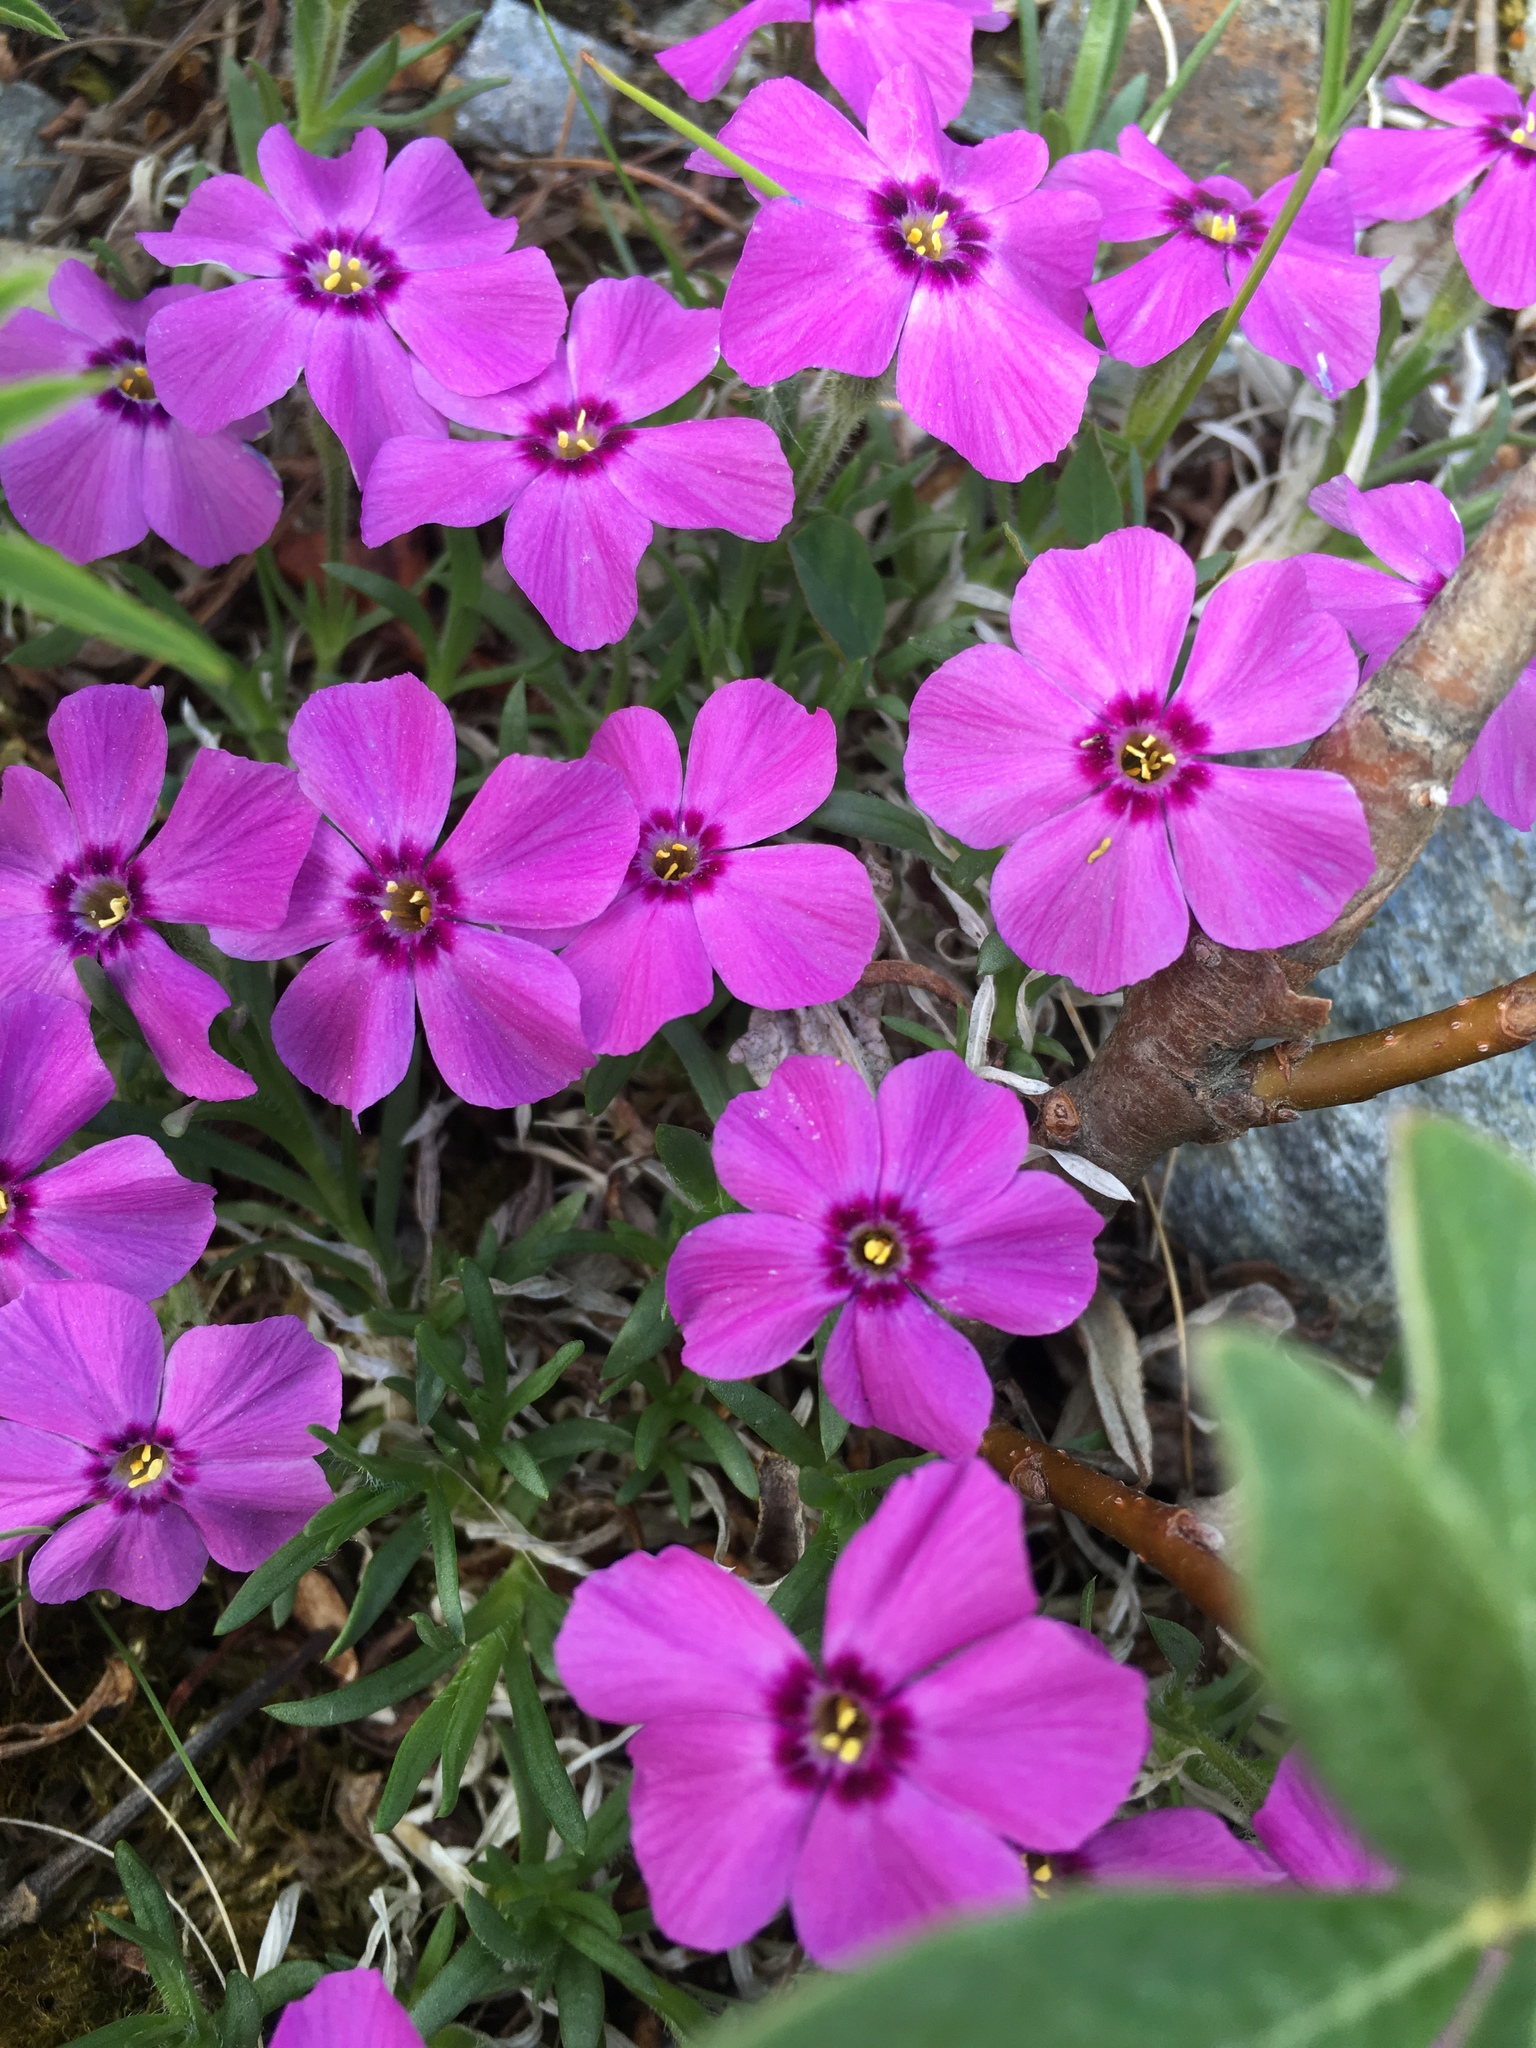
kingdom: Plantae
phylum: Tracheophyta
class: Magnoliopsida
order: Ericales
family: Polemoniaceae
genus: Phlox
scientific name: Phlox richardsonii
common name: Richardson's phlox
